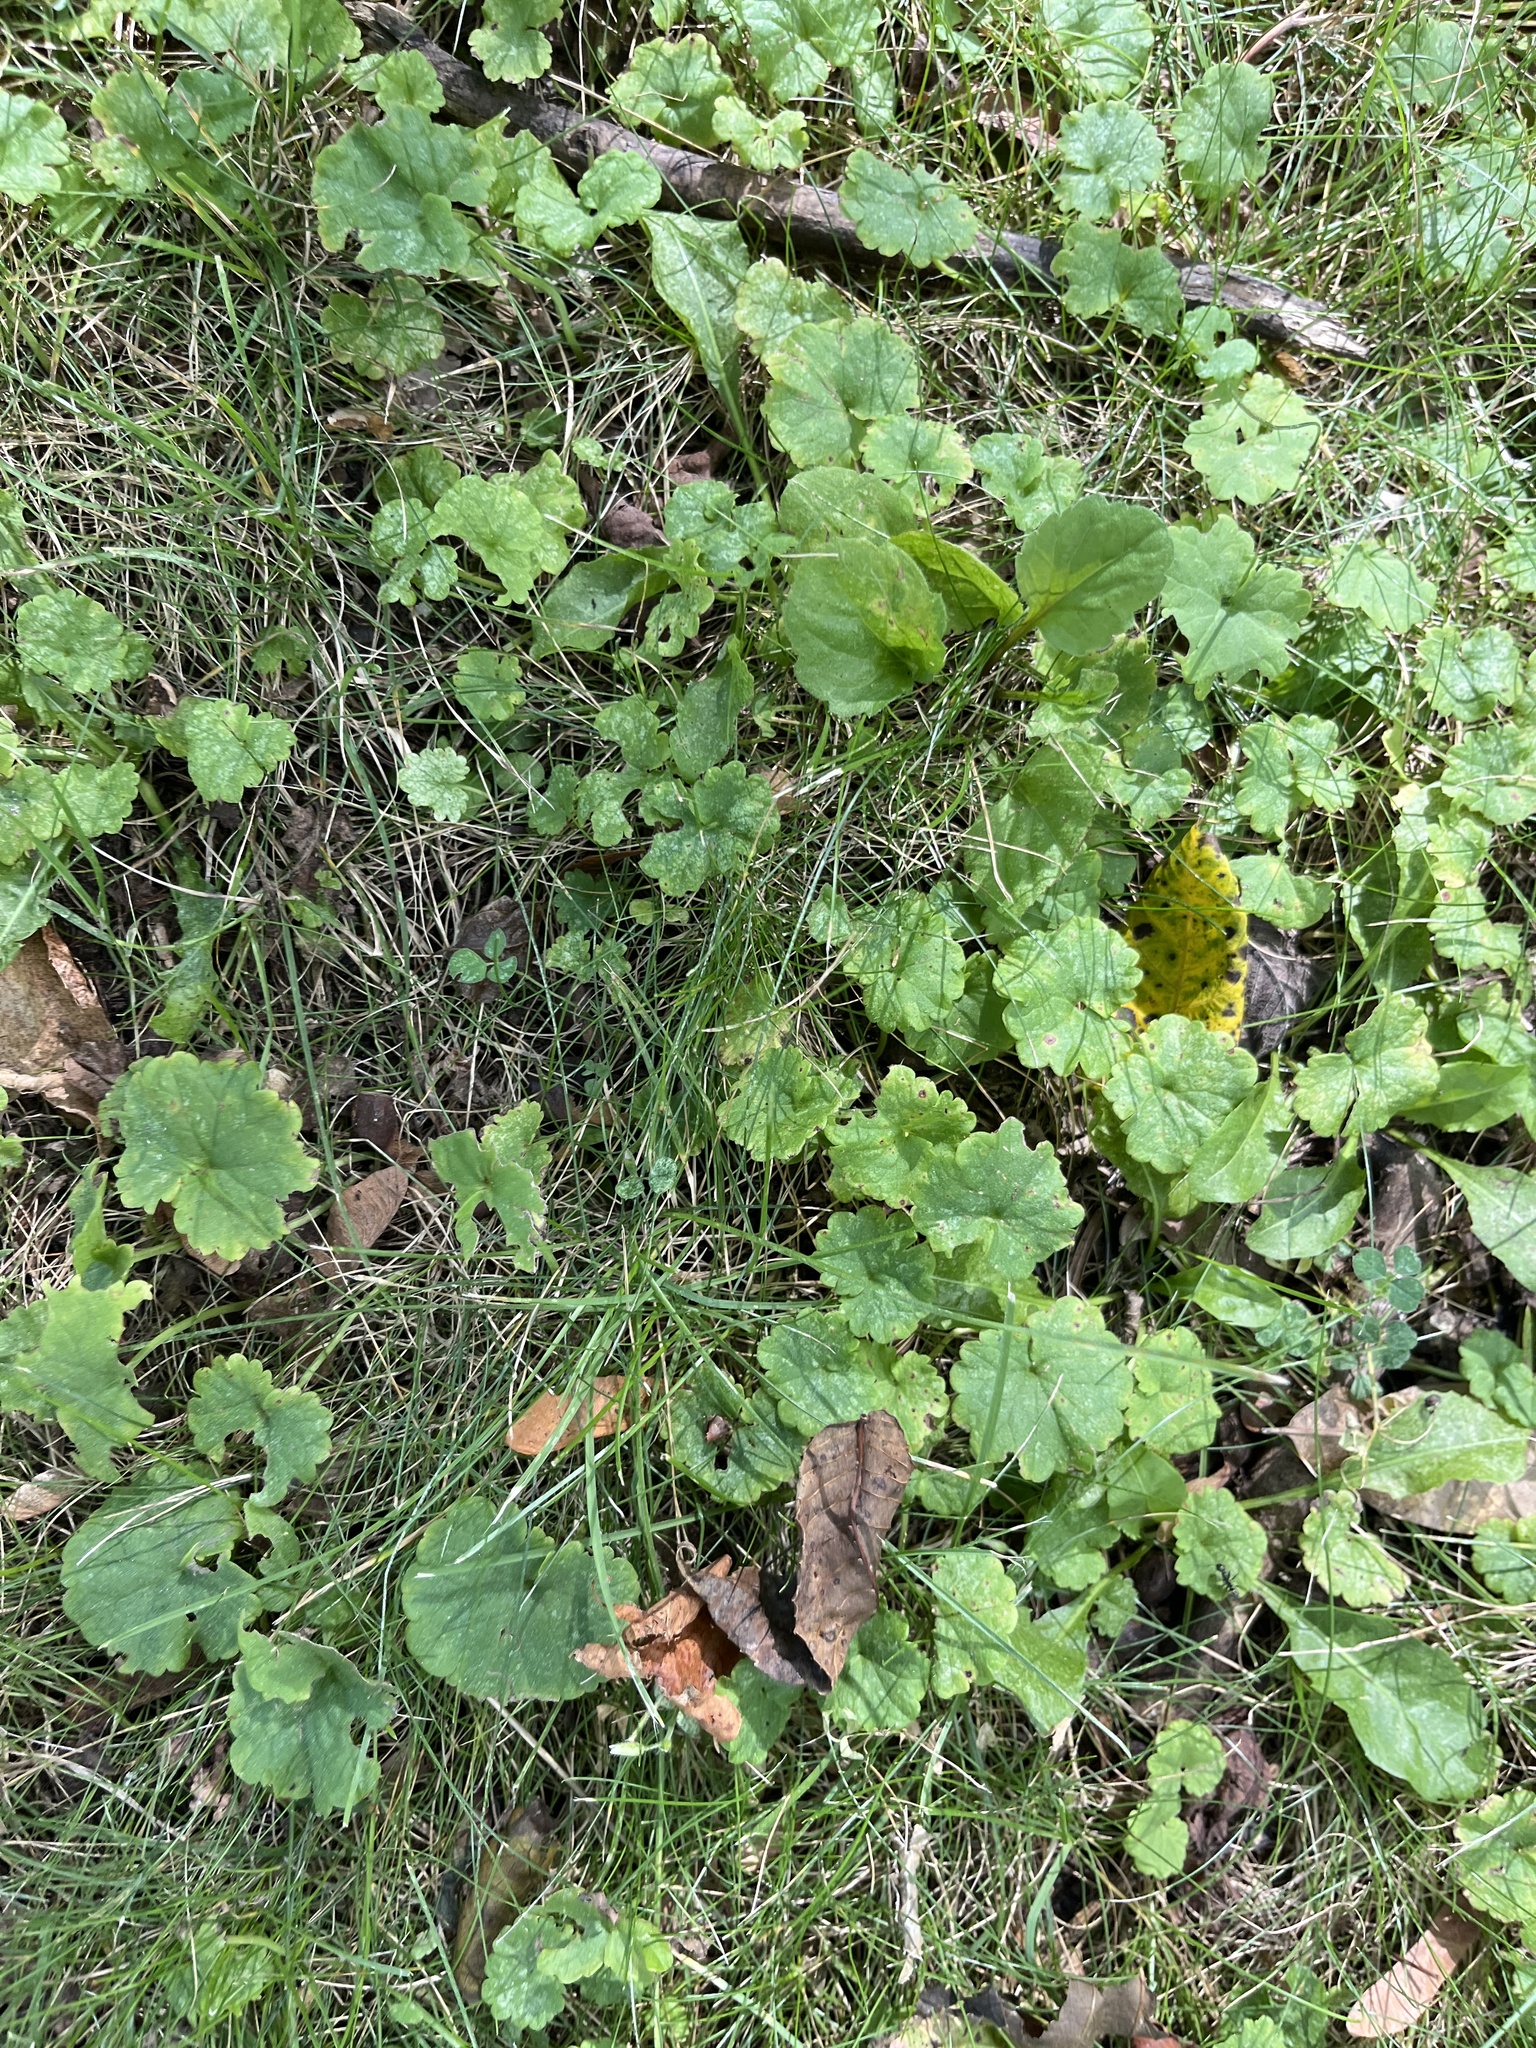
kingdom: Plantae
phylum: Tracheophyta
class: Magnoliopsida
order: Lamiales
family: Lamiaceae
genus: Glechoma
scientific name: Glechoma hederacea
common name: Ground ivy
